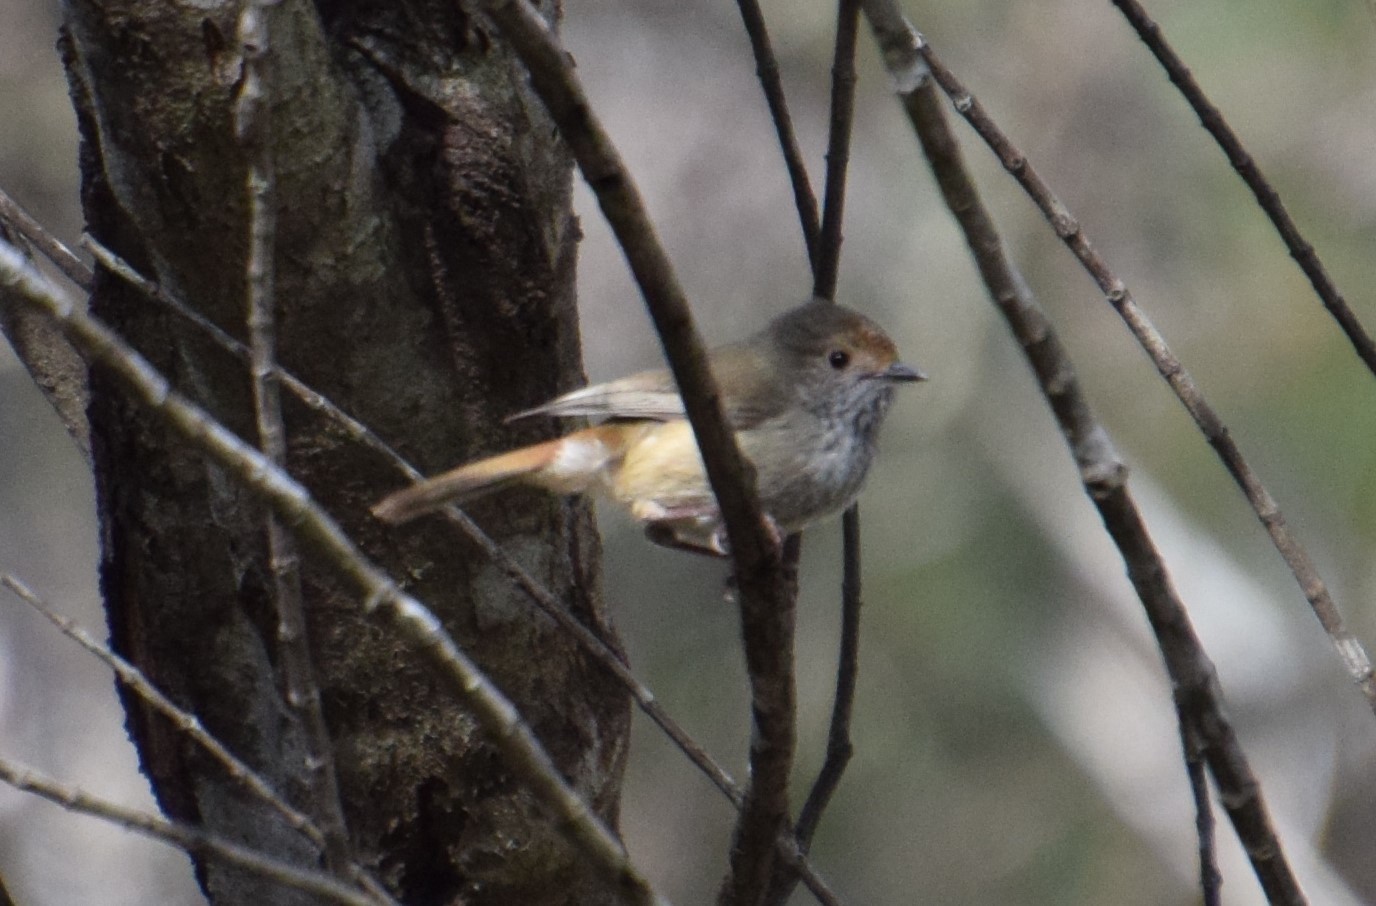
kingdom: Animalia
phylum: Chordata
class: Aves
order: Passeriformes
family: Acanthizidae
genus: Acanthiza
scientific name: Acanthiza pusilla
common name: Brown thornbill
